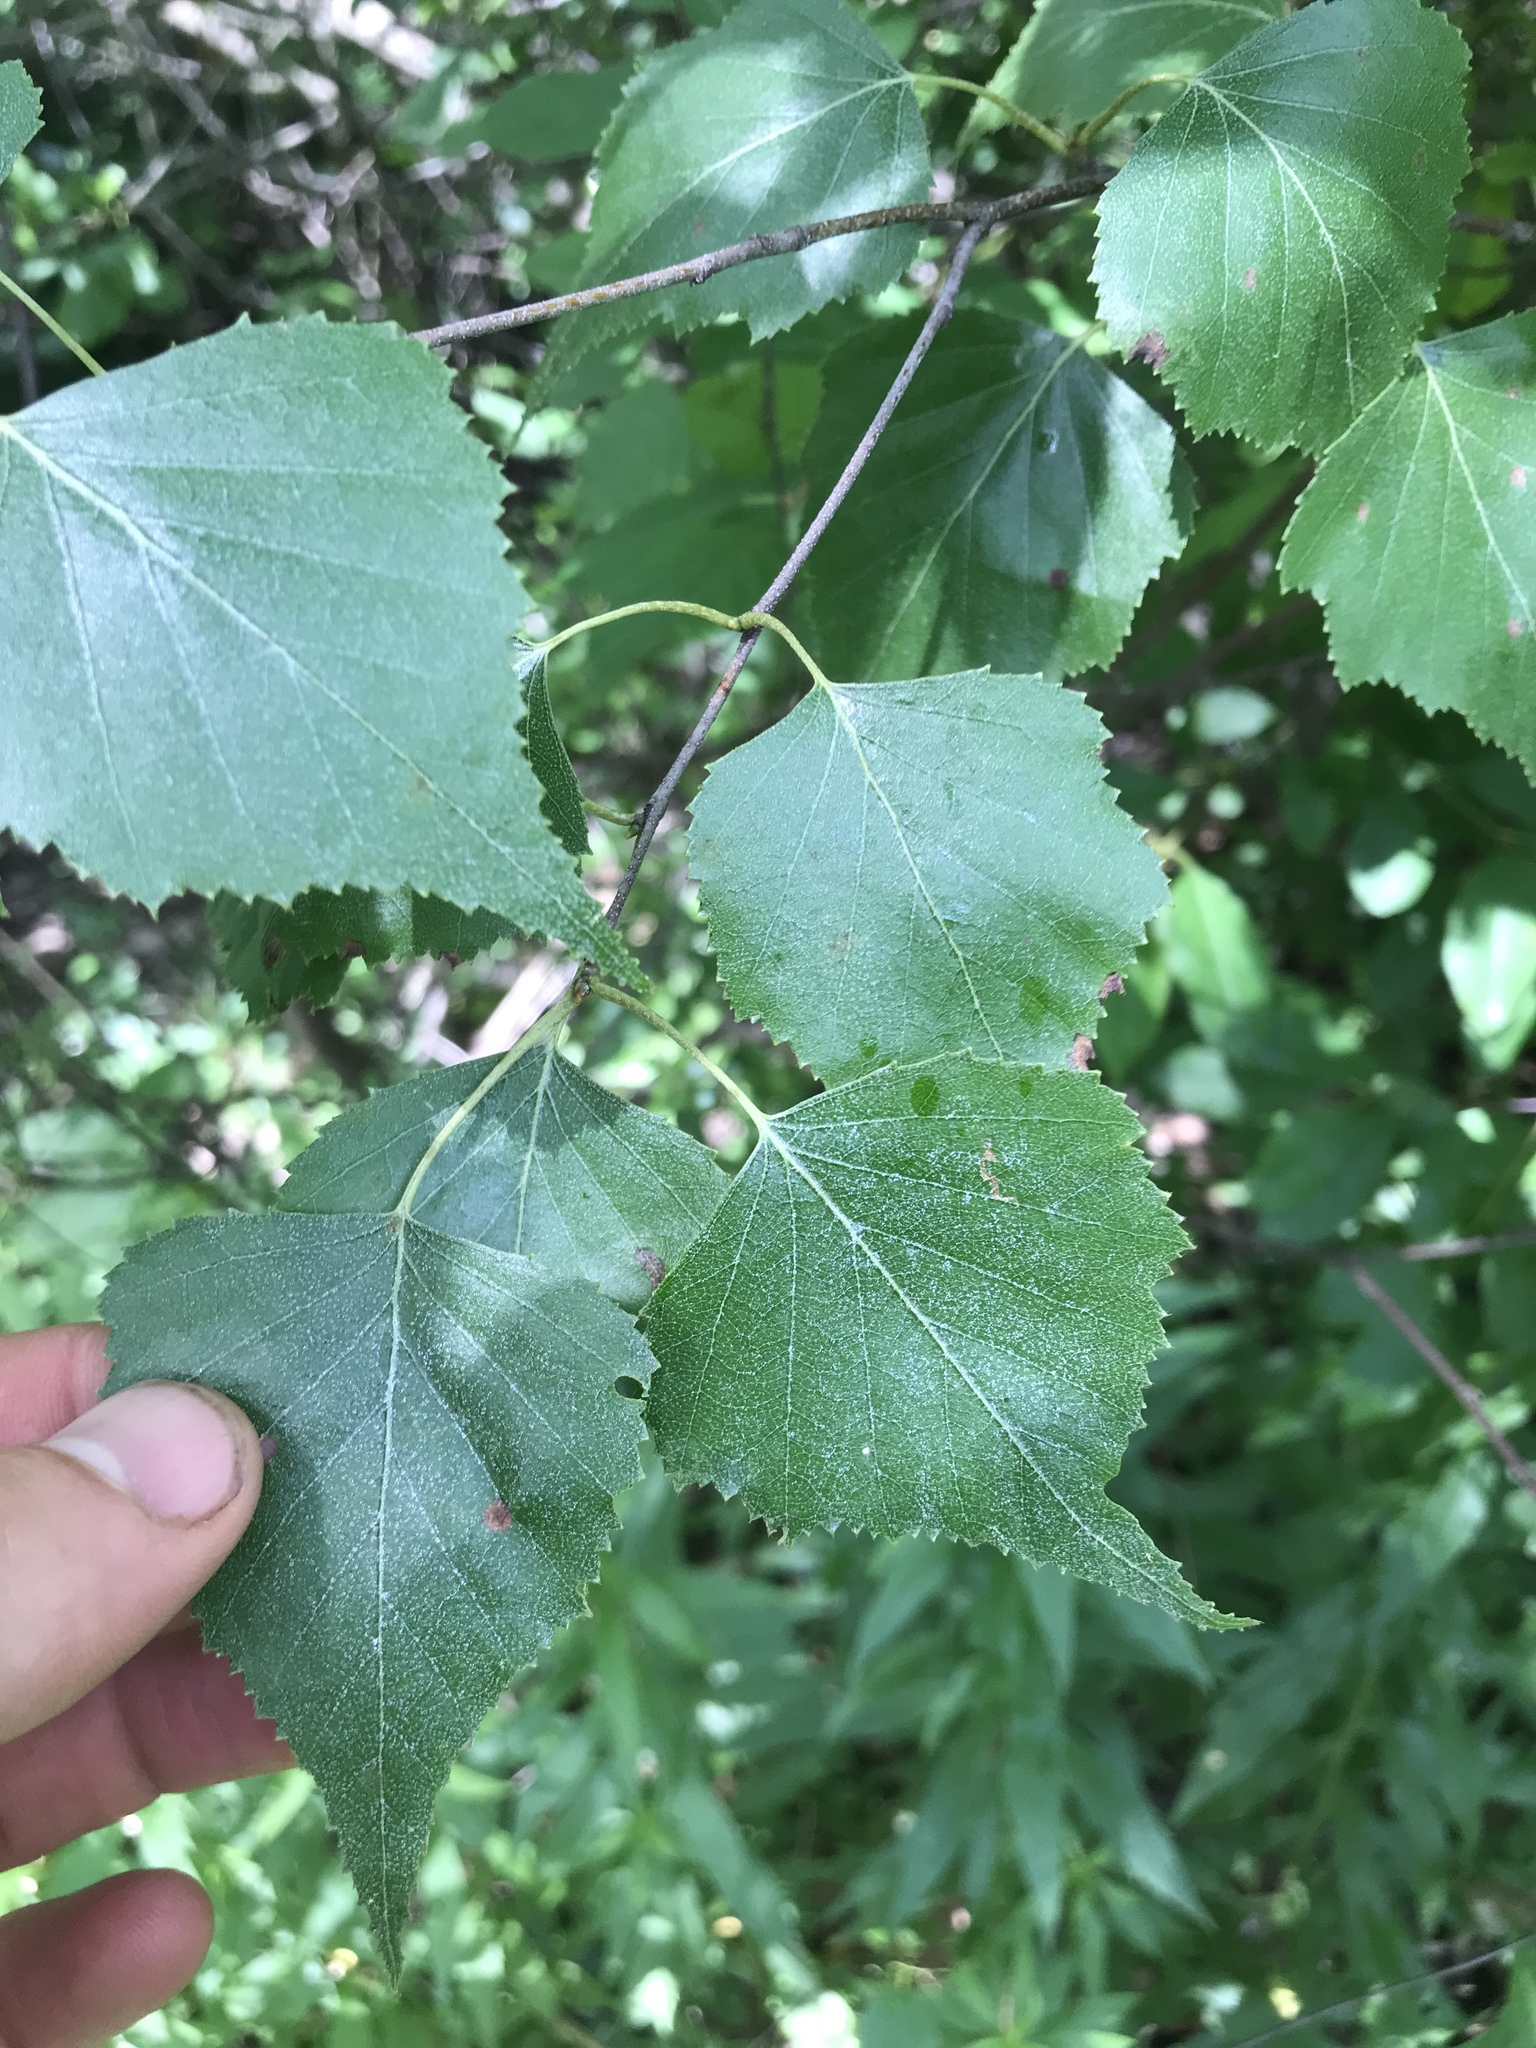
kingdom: Plantae
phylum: Tracheophyta
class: Magnoliopsida
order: Fagales
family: Betulaceae
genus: Betula
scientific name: Betula populifolia
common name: Fire birch
